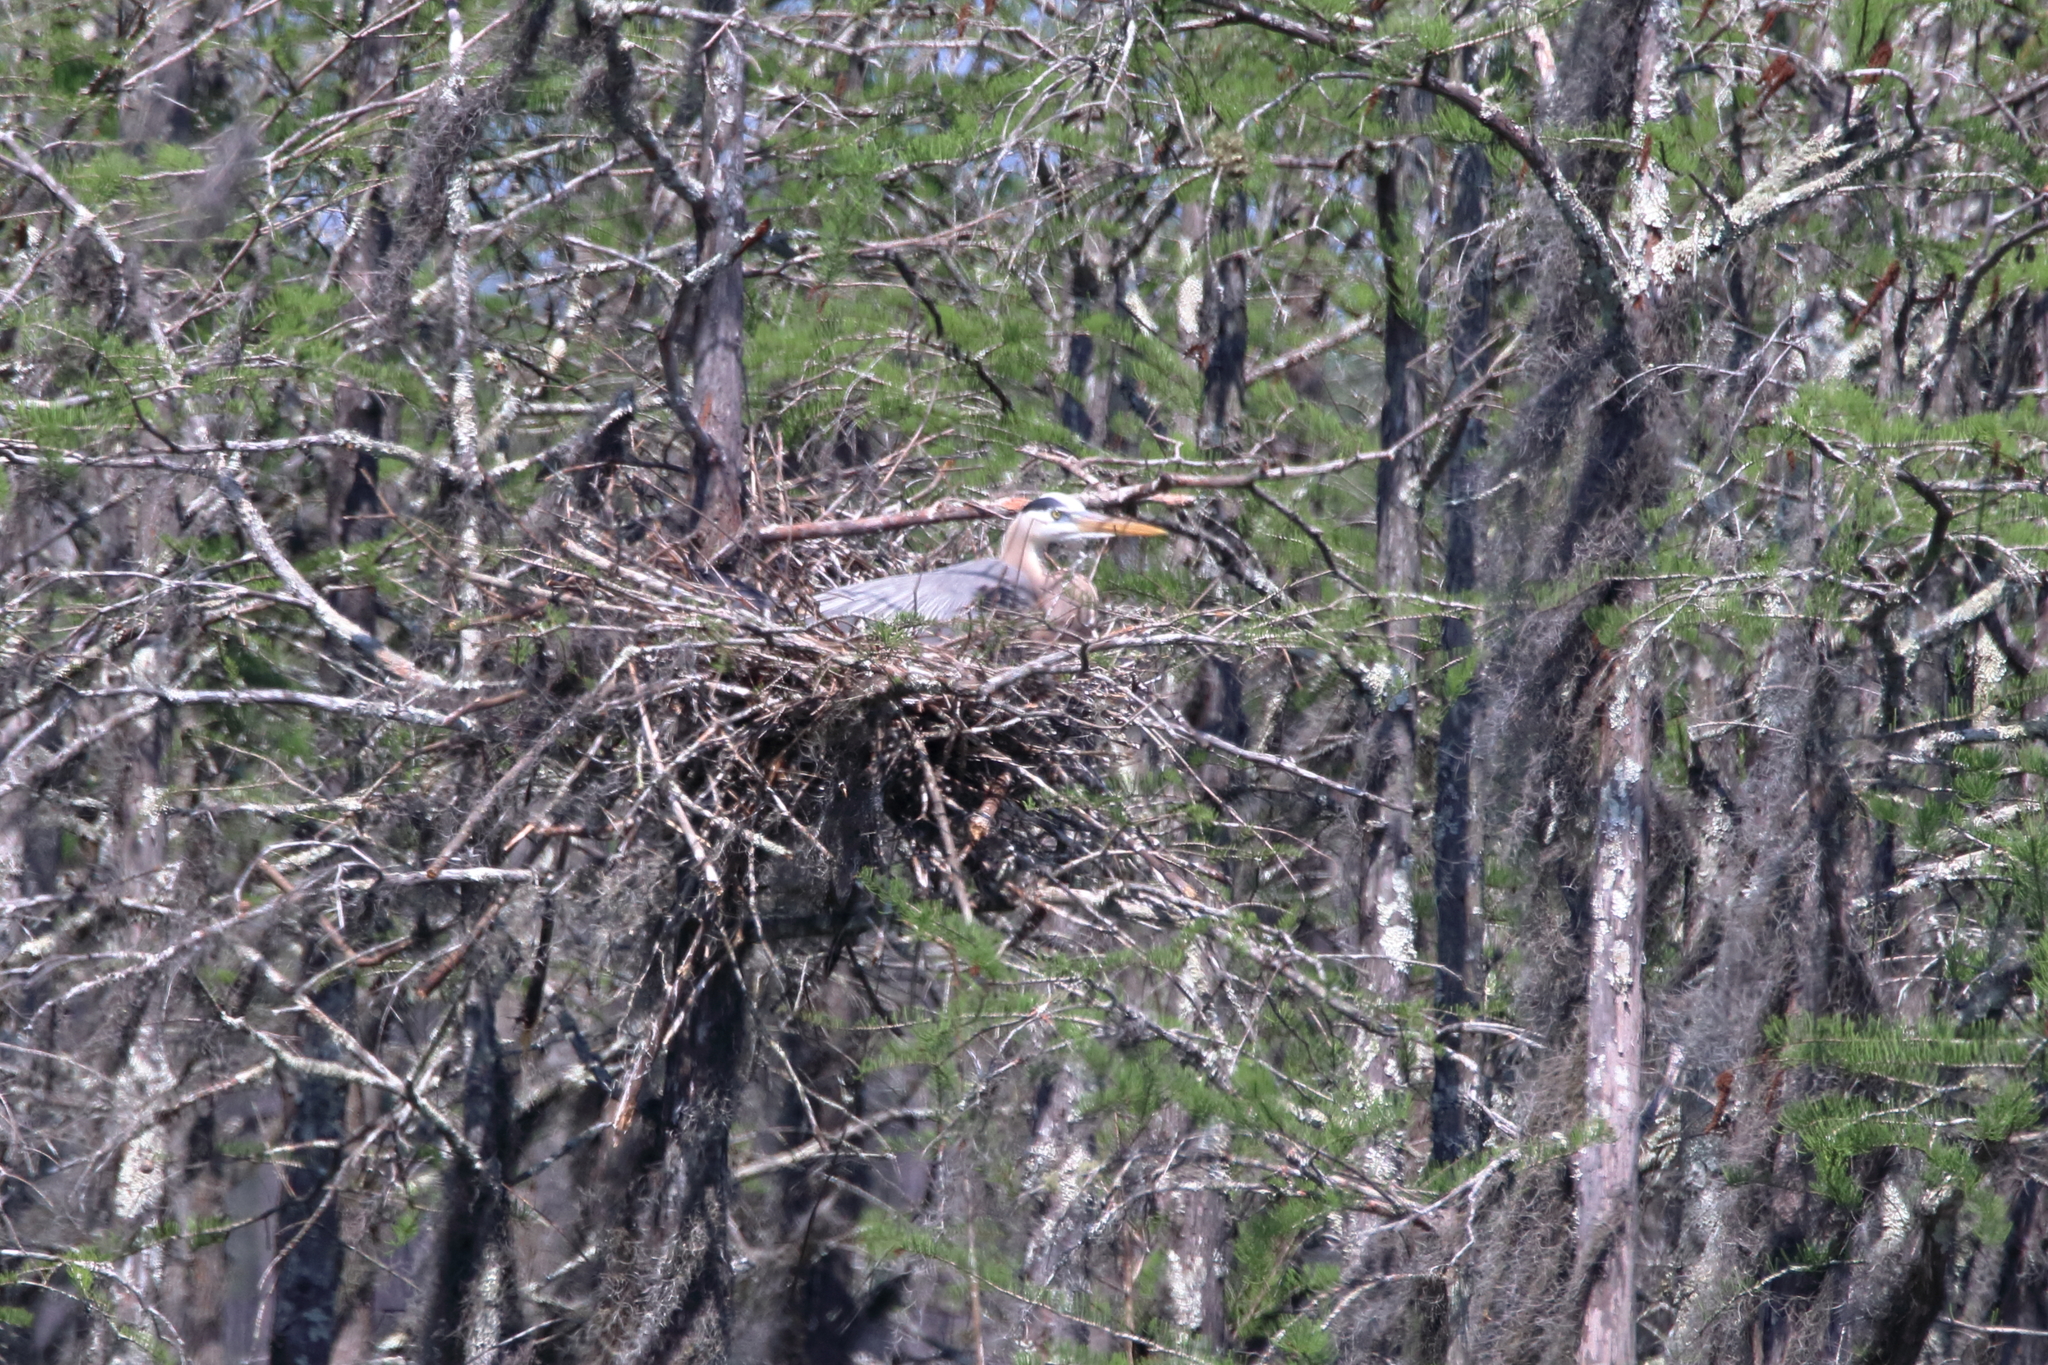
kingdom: Animalia
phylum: Chordata
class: Aves
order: Pelecaniformes
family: Ardeidae
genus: Ardea
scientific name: Ardea herodias
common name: Great blue heron
